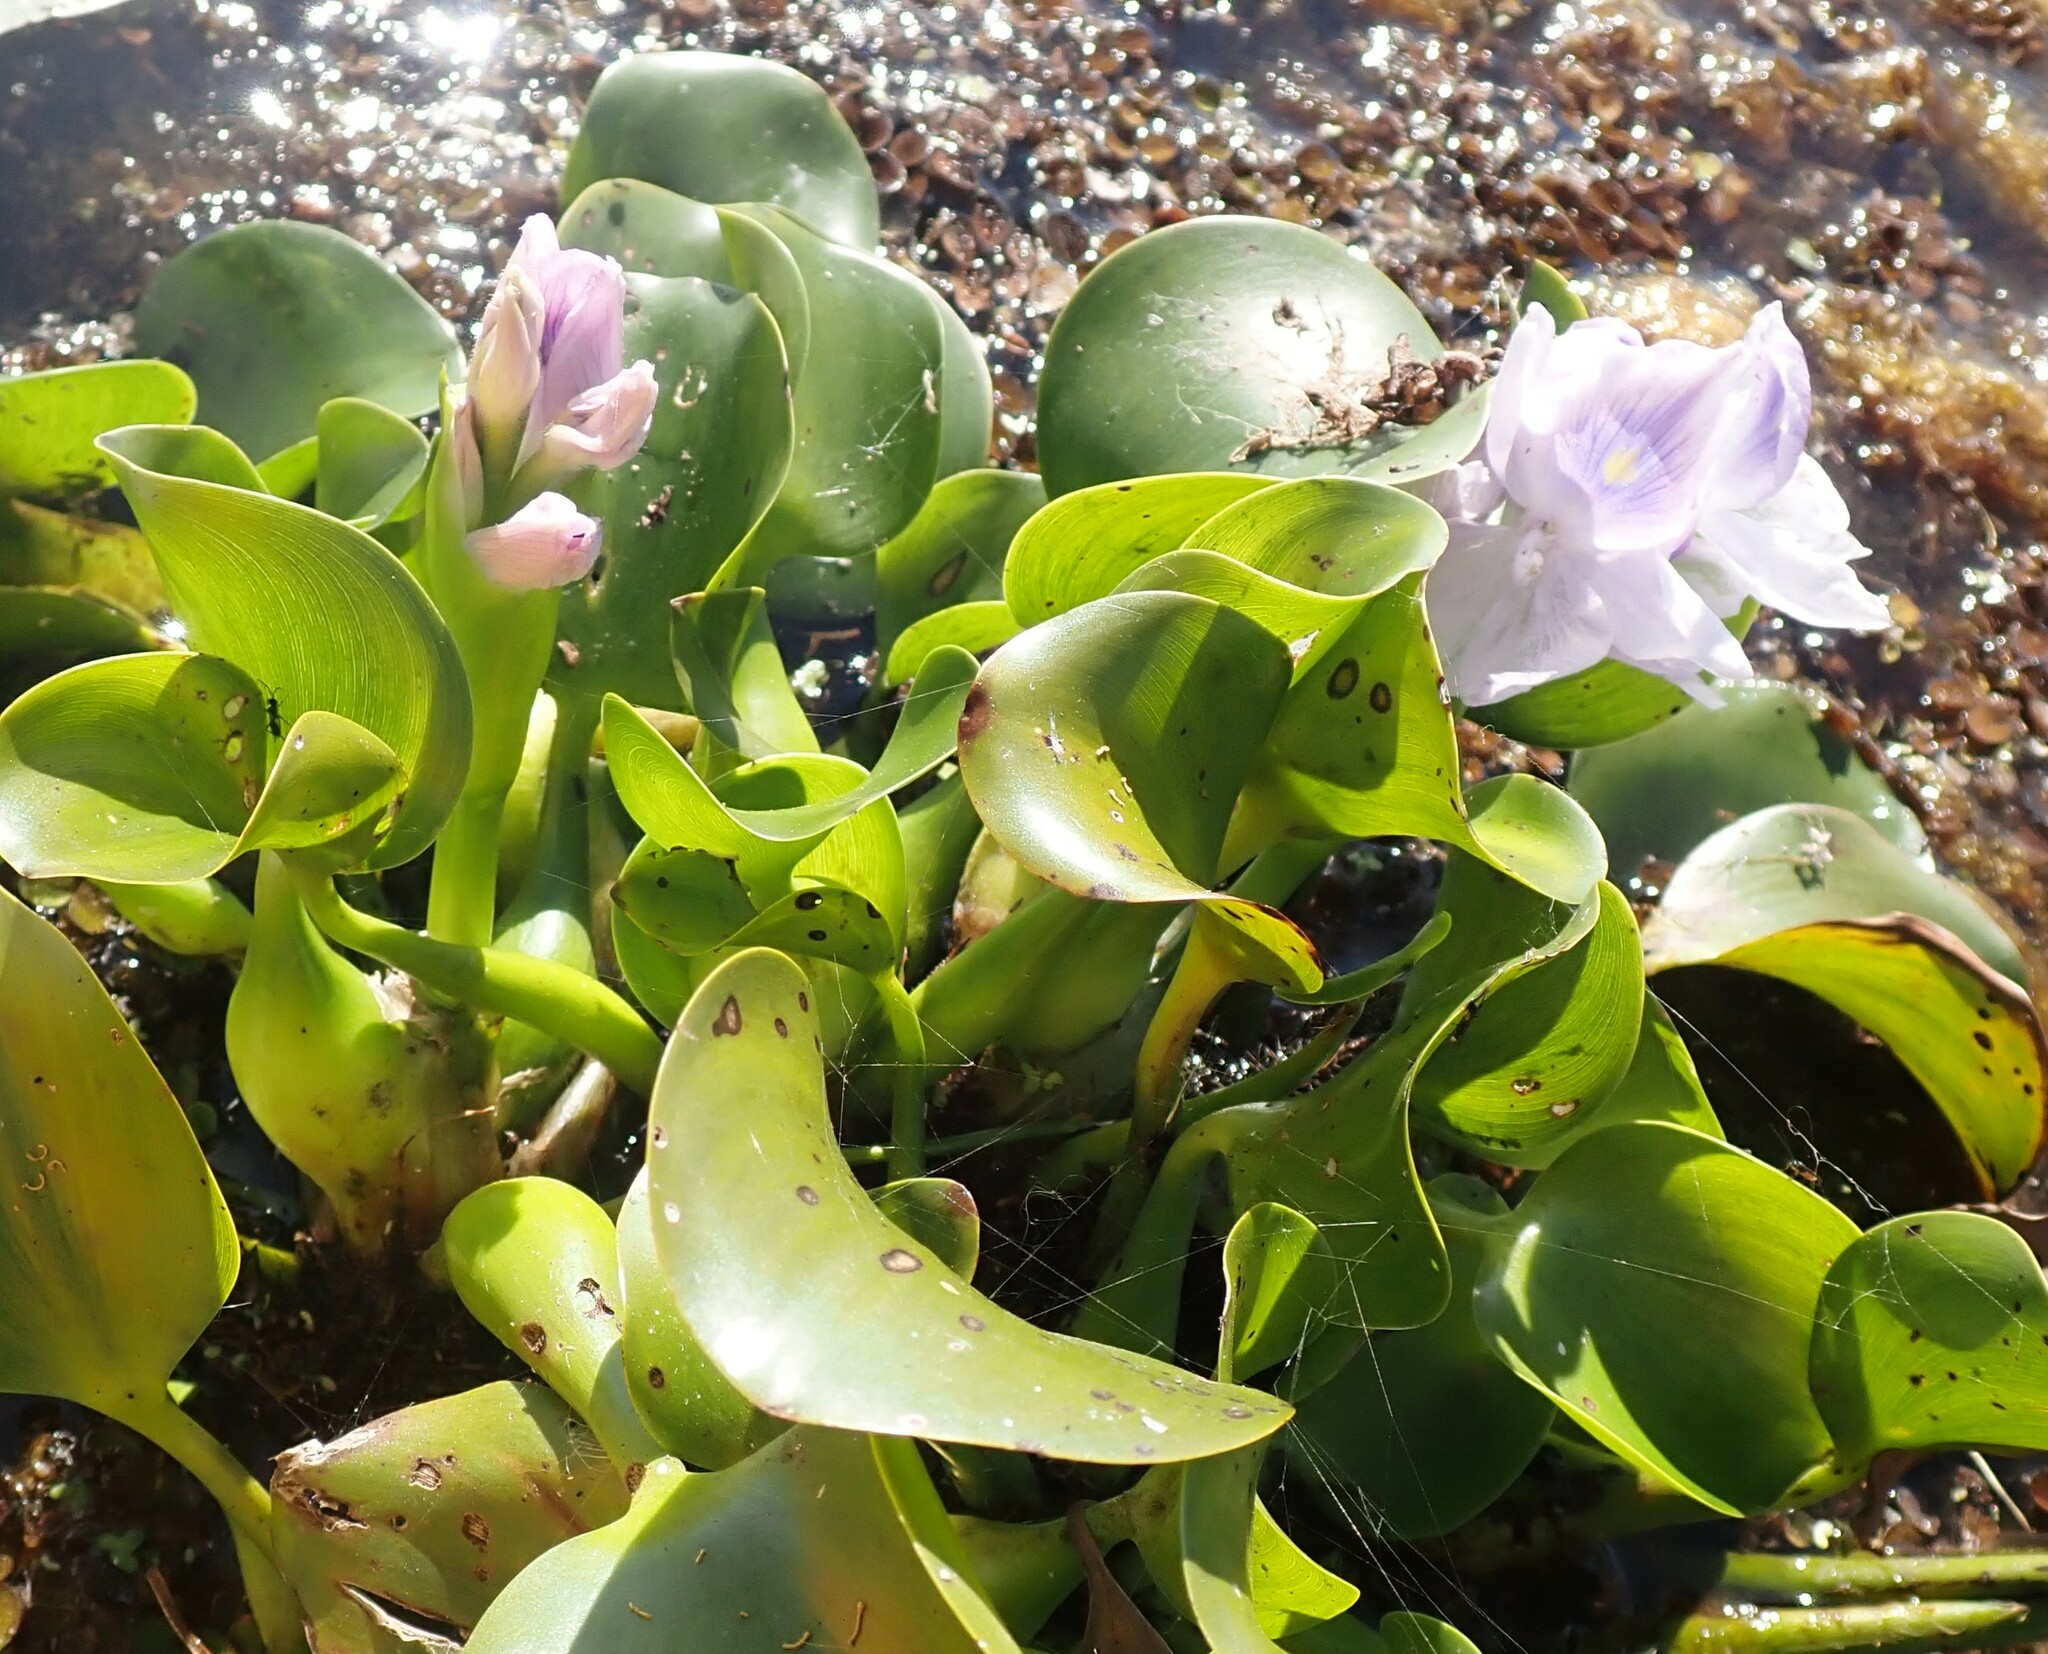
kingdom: Plantae
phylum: Tracheophyta
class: Liliopsida
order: Commelinales
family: Pontederiaceae
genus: Pontederia
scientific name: Pontederia crassipes
